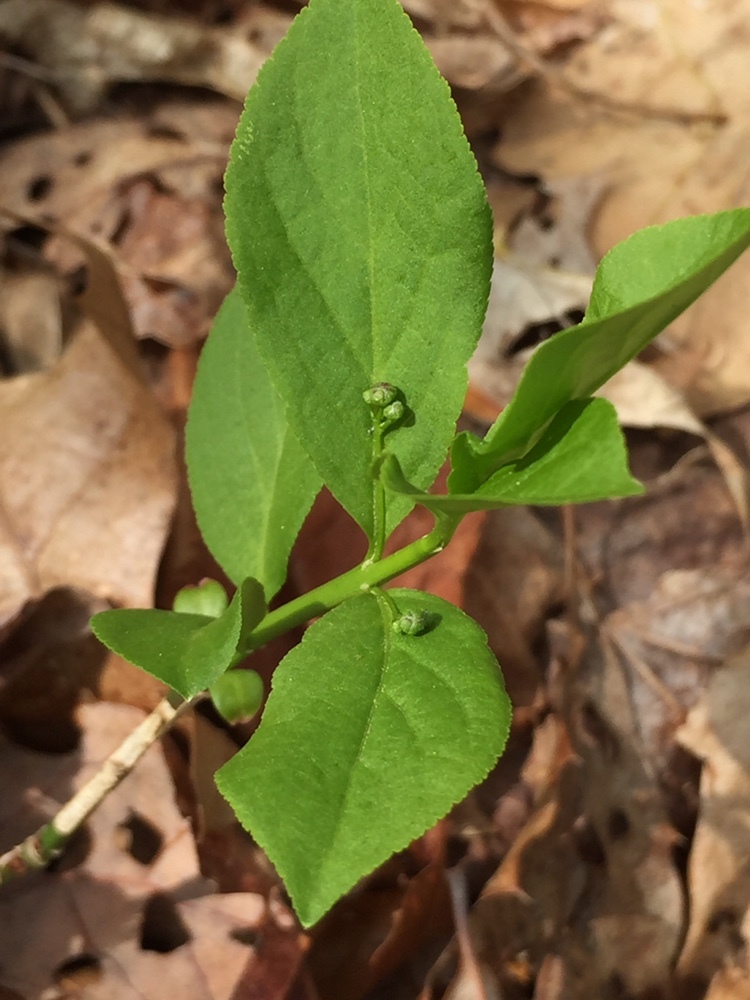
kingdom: Plantae
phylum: Tracheophyta
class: Magnoliopsida
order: Celastrales
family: Celastraceae
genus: Euonymus
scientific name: Euonymus obovatus
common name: Running strawberry-bush
